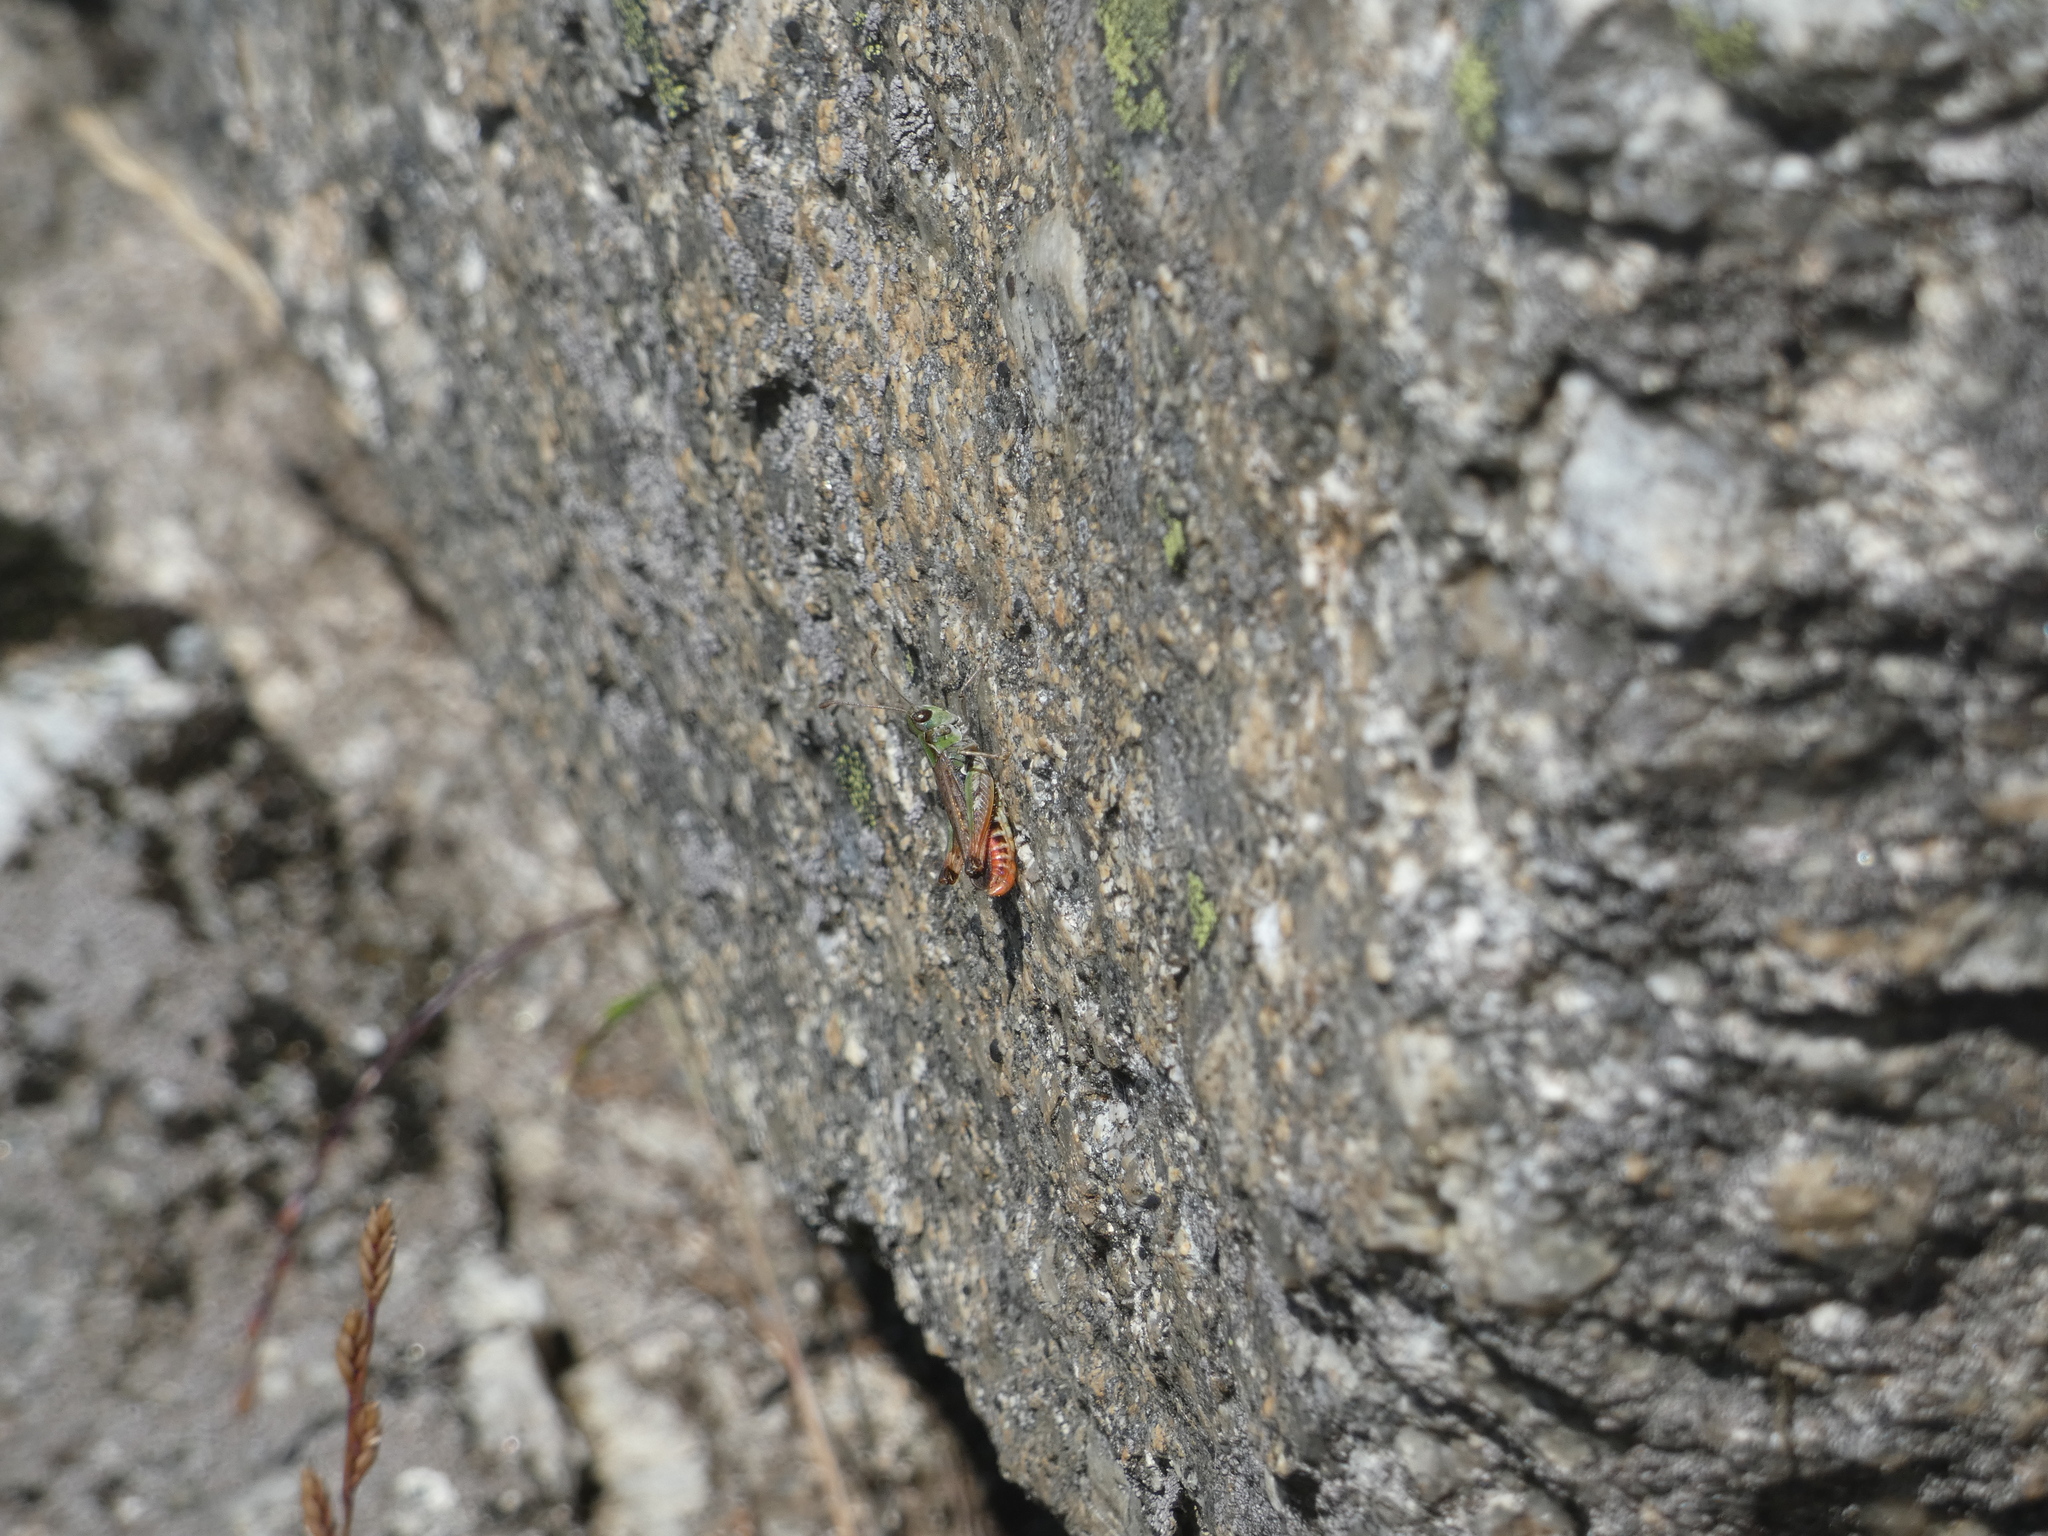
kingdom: Animalia
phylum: Arthropoda
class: Insecta
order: Orthoptera
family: Acrididae
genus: Myrmeleotettix
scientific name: Myrmeleotettix maculatus
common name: Mottled grasshopper
